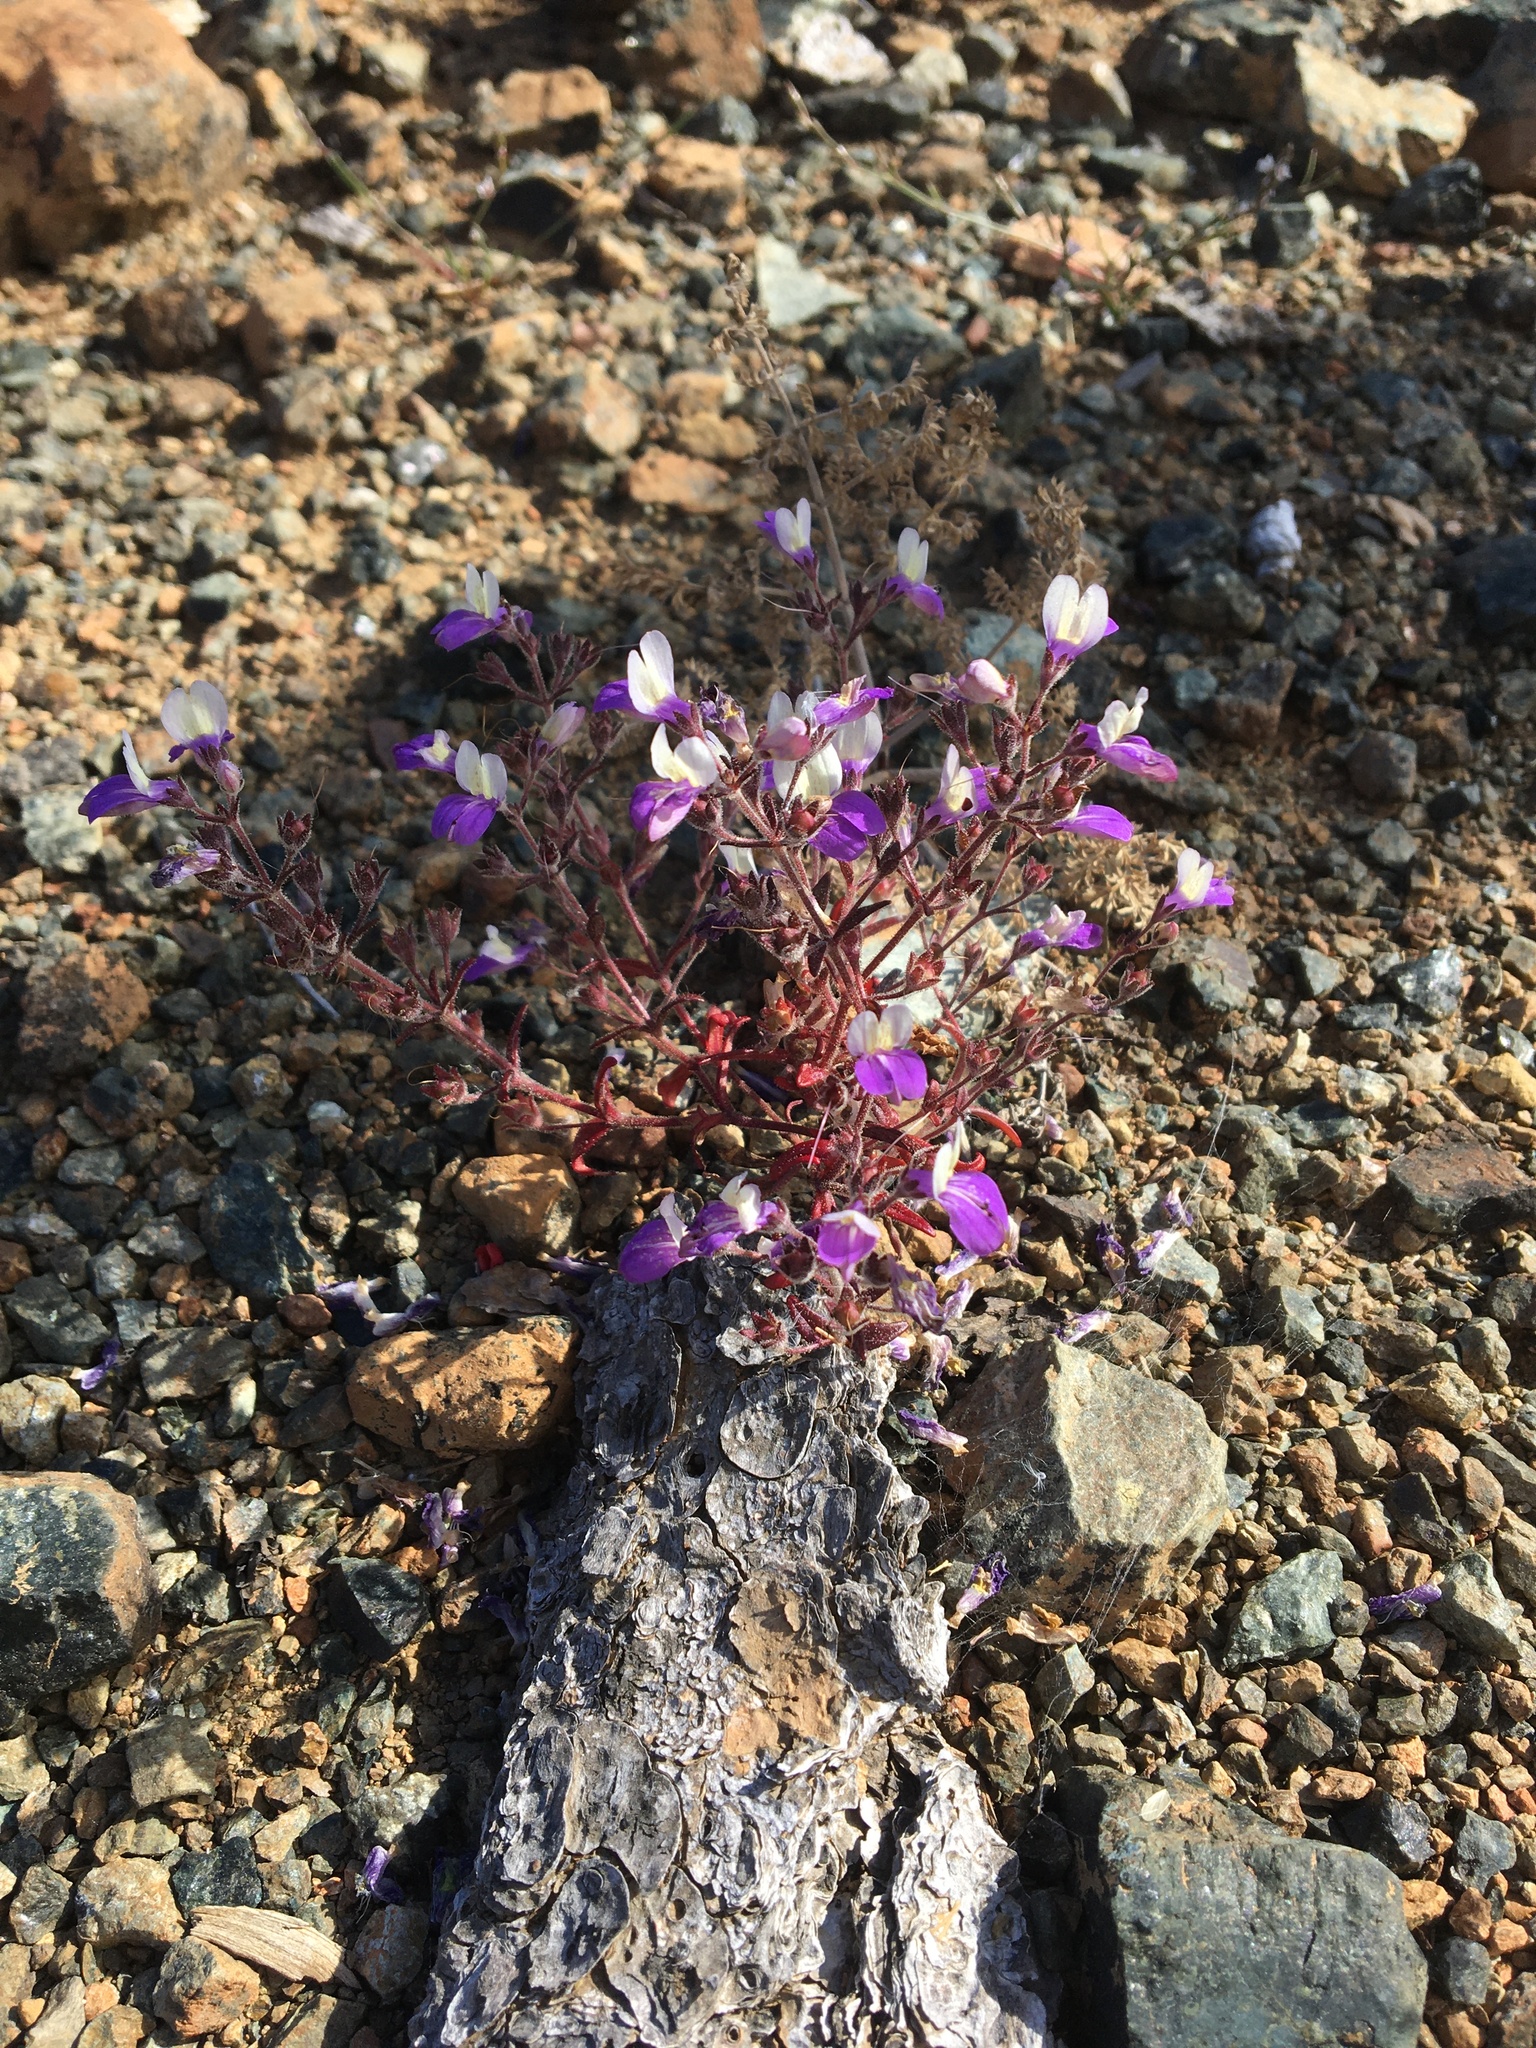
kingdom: Plantae
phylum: Tracheophyta
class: Magnoliopsida
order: Lamiales
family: Plantaginaceae
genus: Collinsia
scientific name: Collinsia linearis
